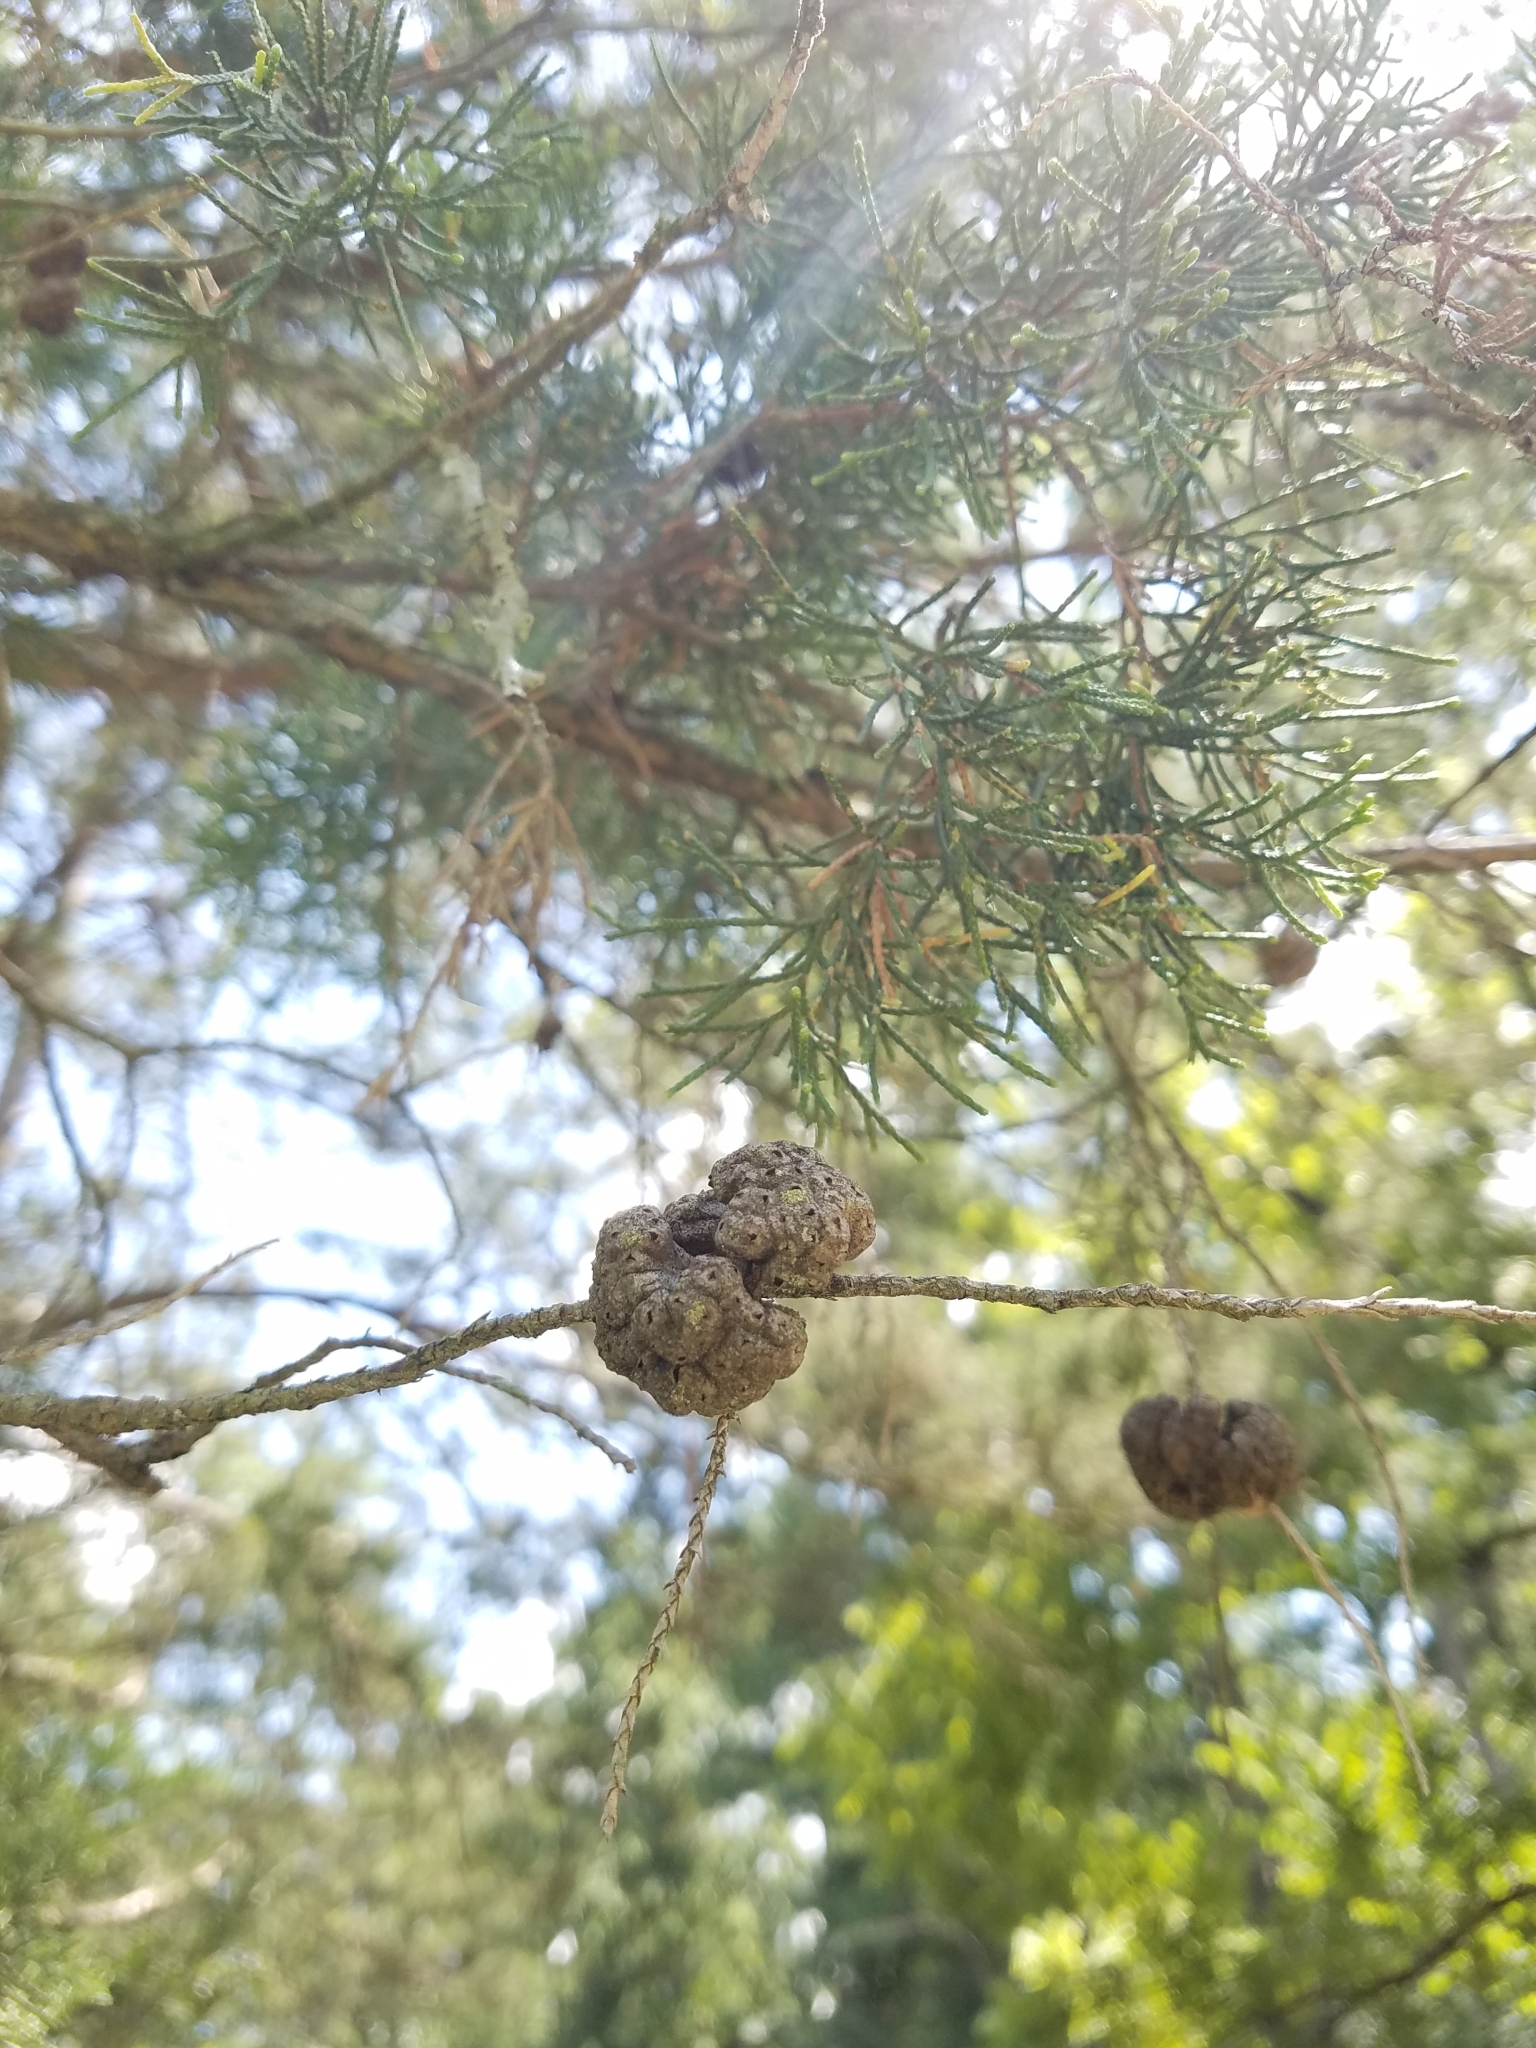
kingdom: Fungi
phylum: Basidiomycota
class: Pucciniomycetes
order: Pucciniales
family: Gymnosporangiaceae
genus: Gymnosporangium
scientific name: Gymnosporangium juniperi-virginianae
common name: Juniper-apple rust
